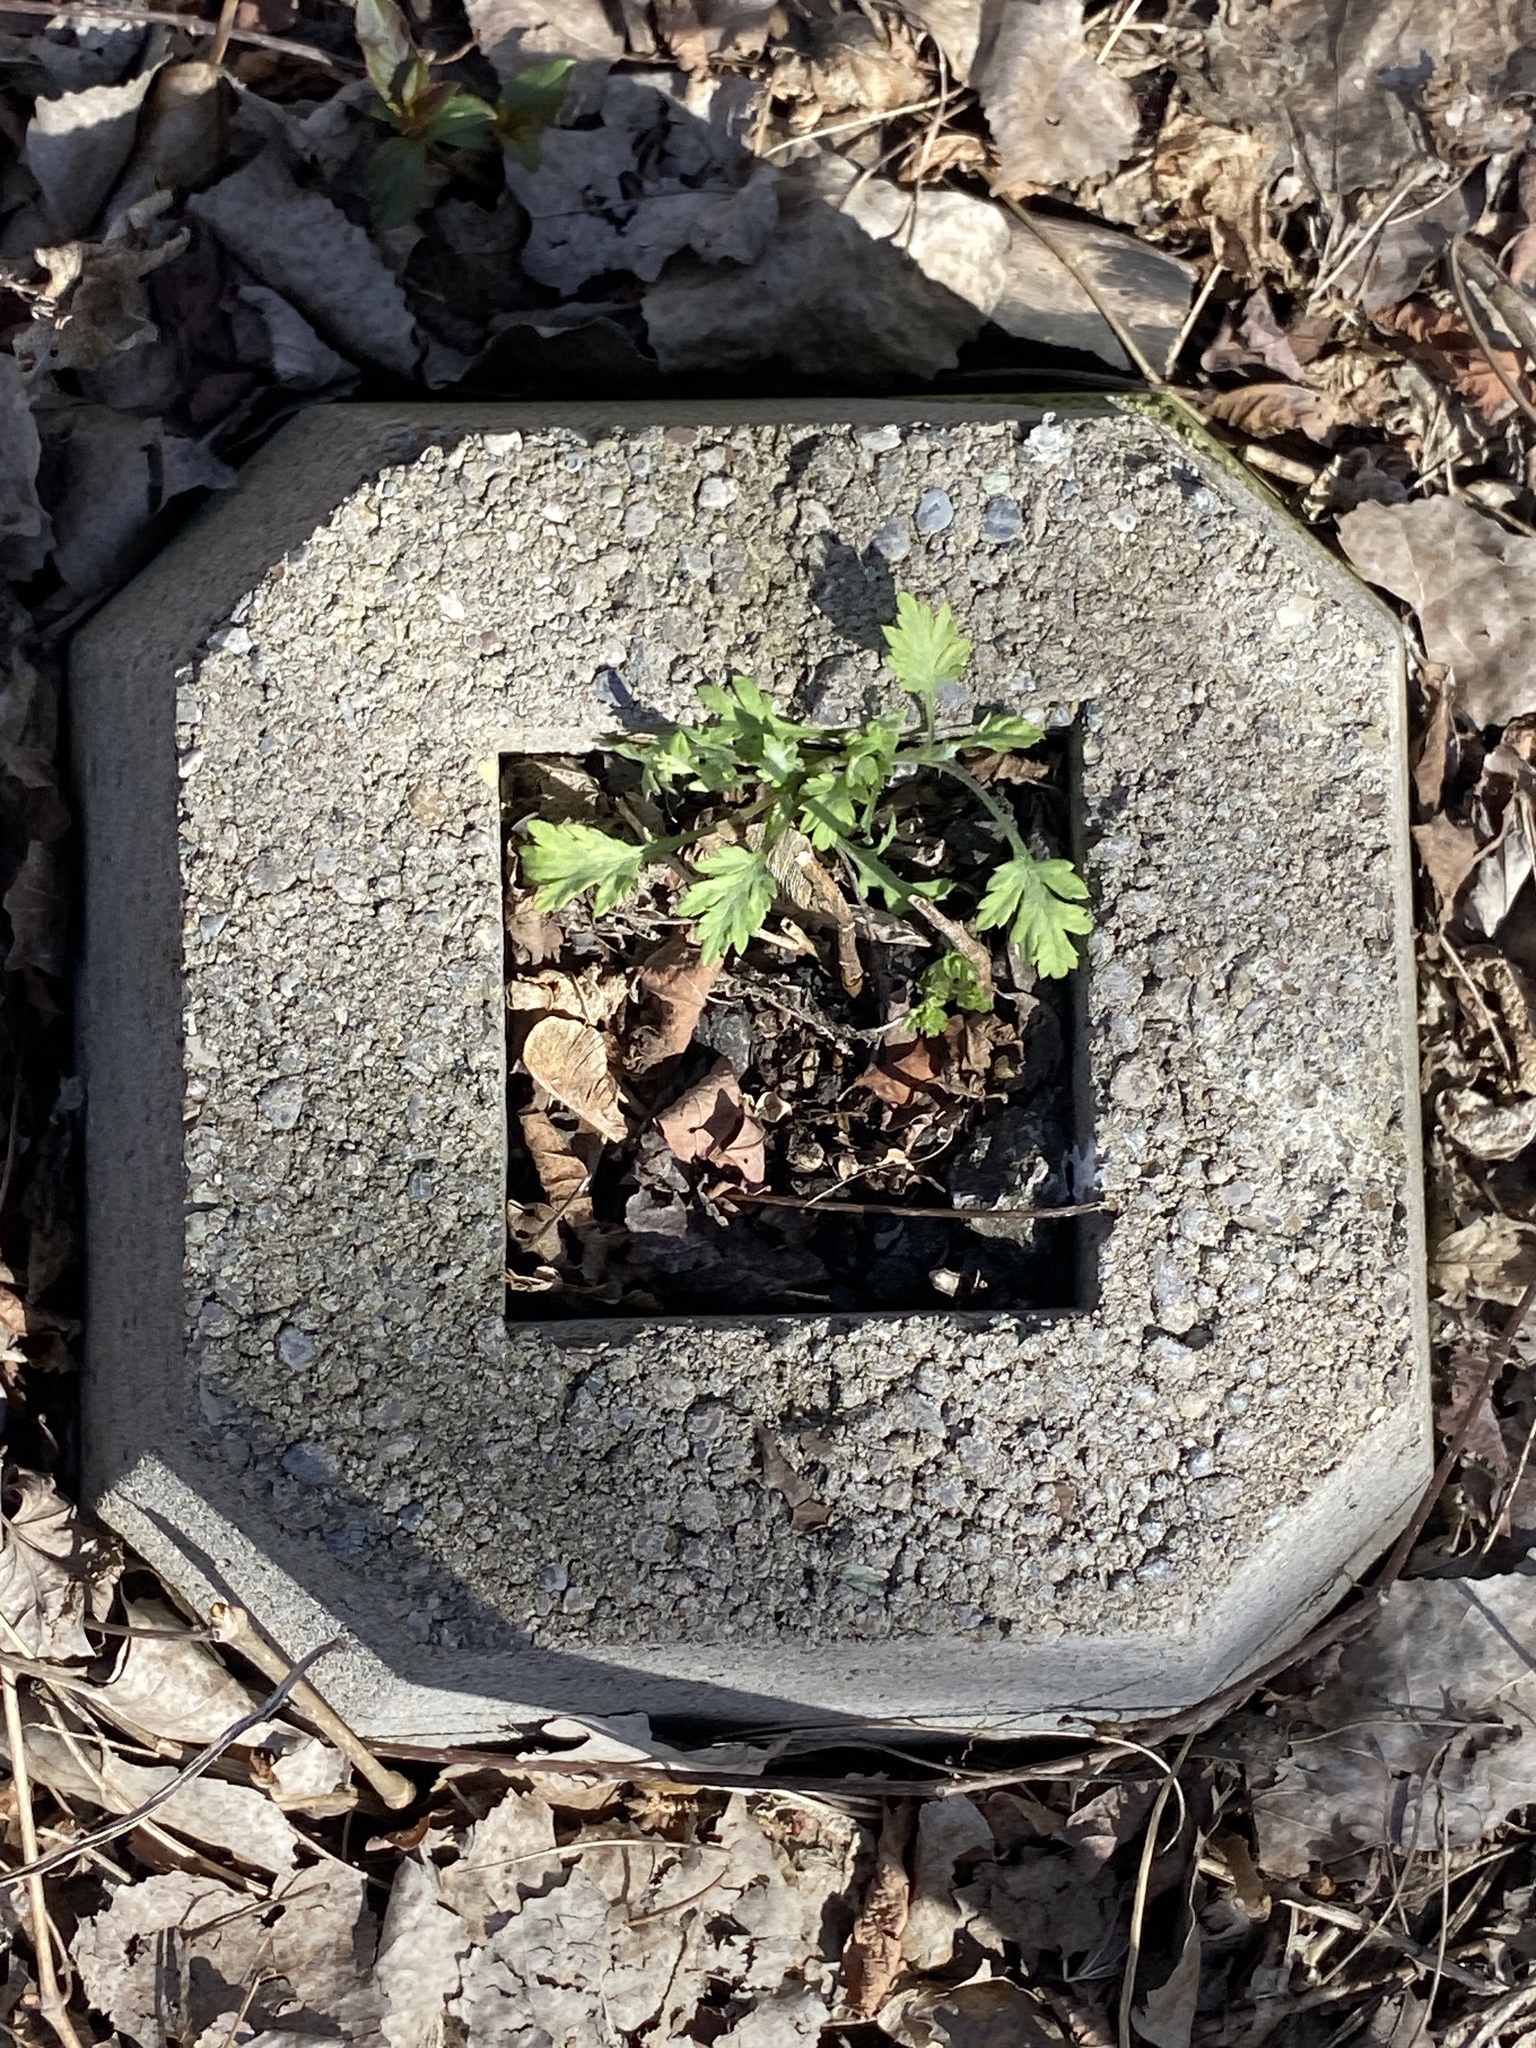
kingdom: Plantae
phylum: Tracheophyta
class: Magnoliopsida
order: Asterales
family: Asteraceae
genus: Artemisia
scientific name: Artemisia vulgaris
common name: Mugwort
